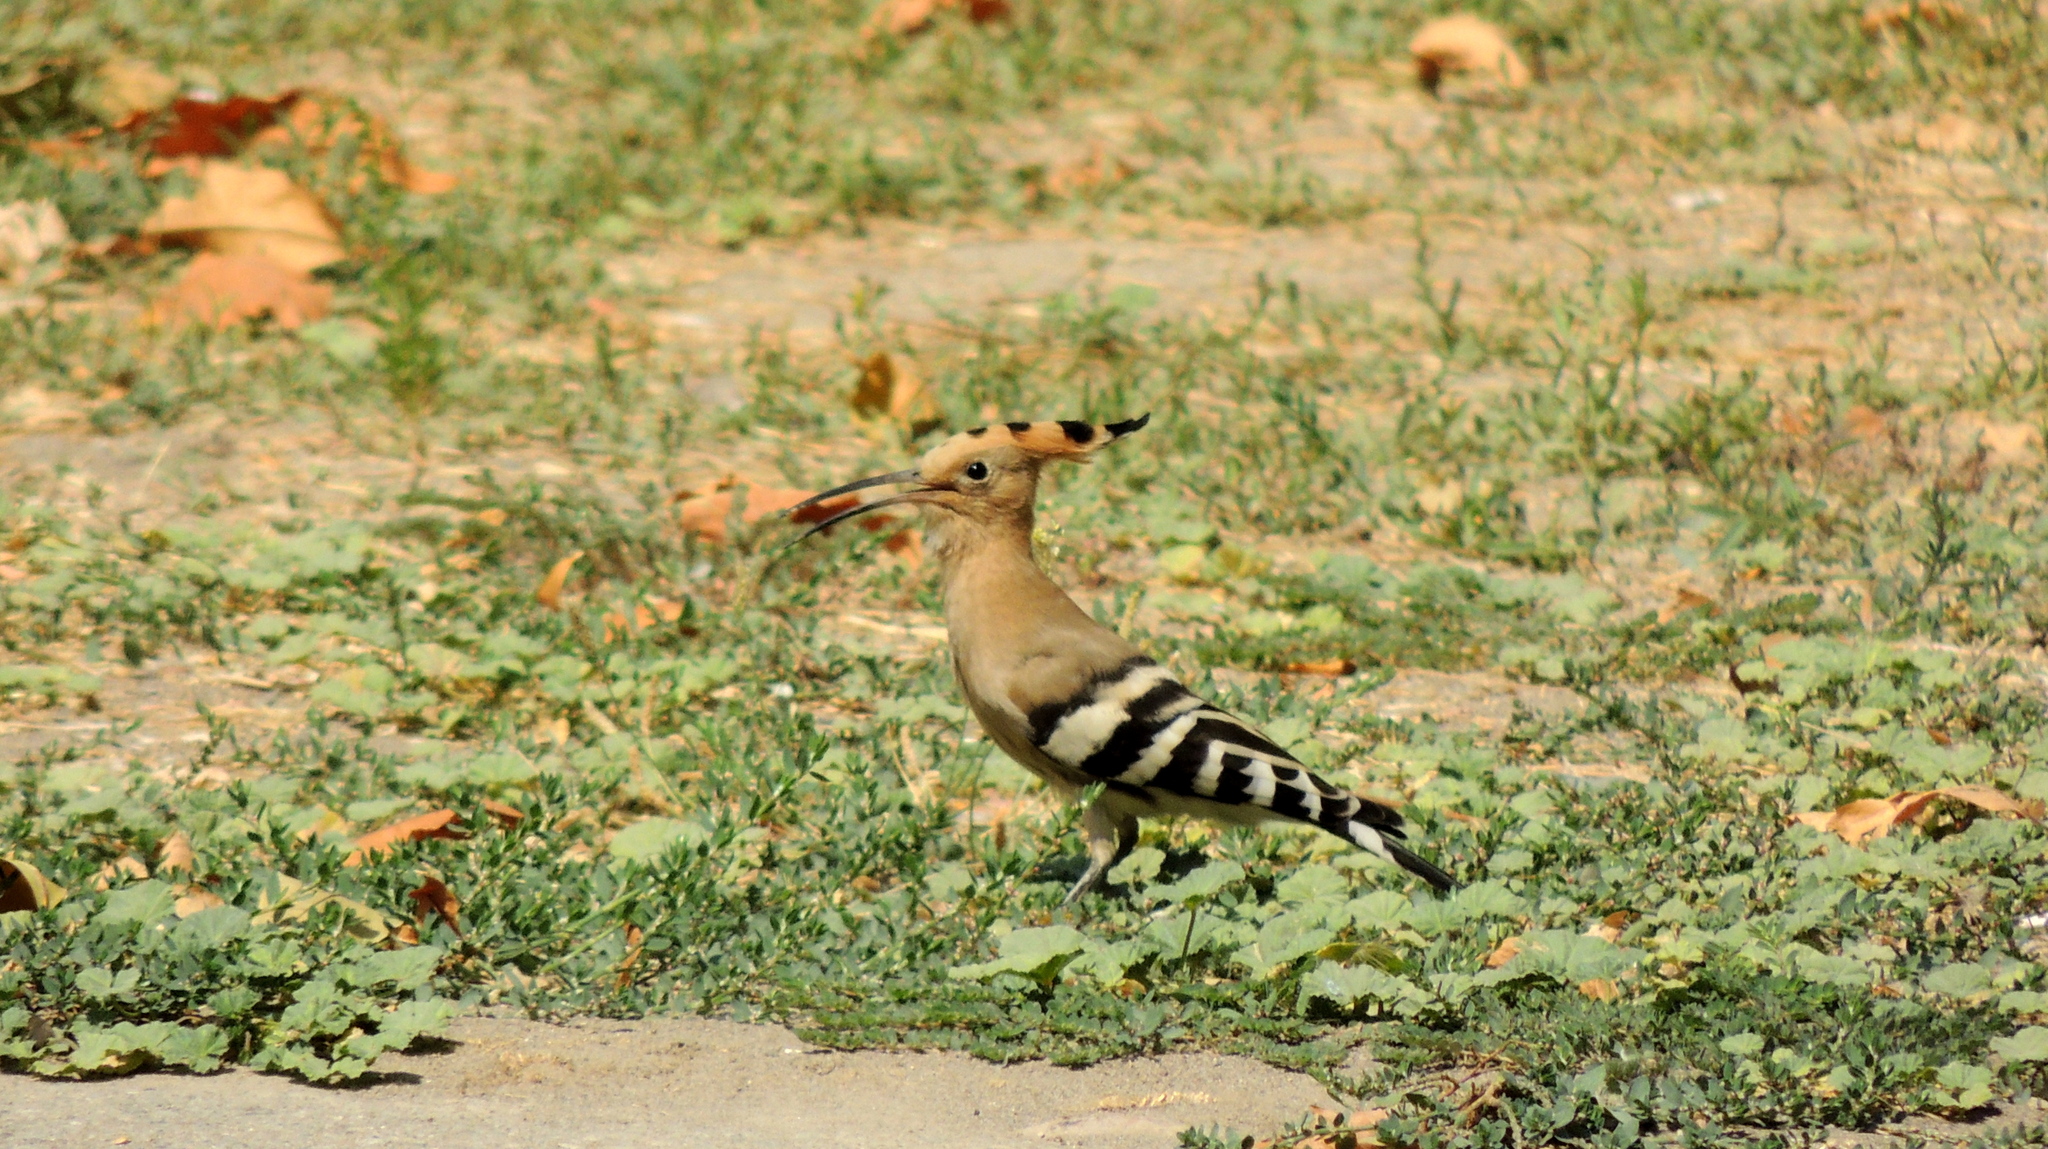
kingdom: Animalia
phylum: Chordata
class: Aves
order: Bucerotiformes
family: Upupidae
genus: Upupa
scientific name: Upupa epops
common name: Eurasian hoopoe
